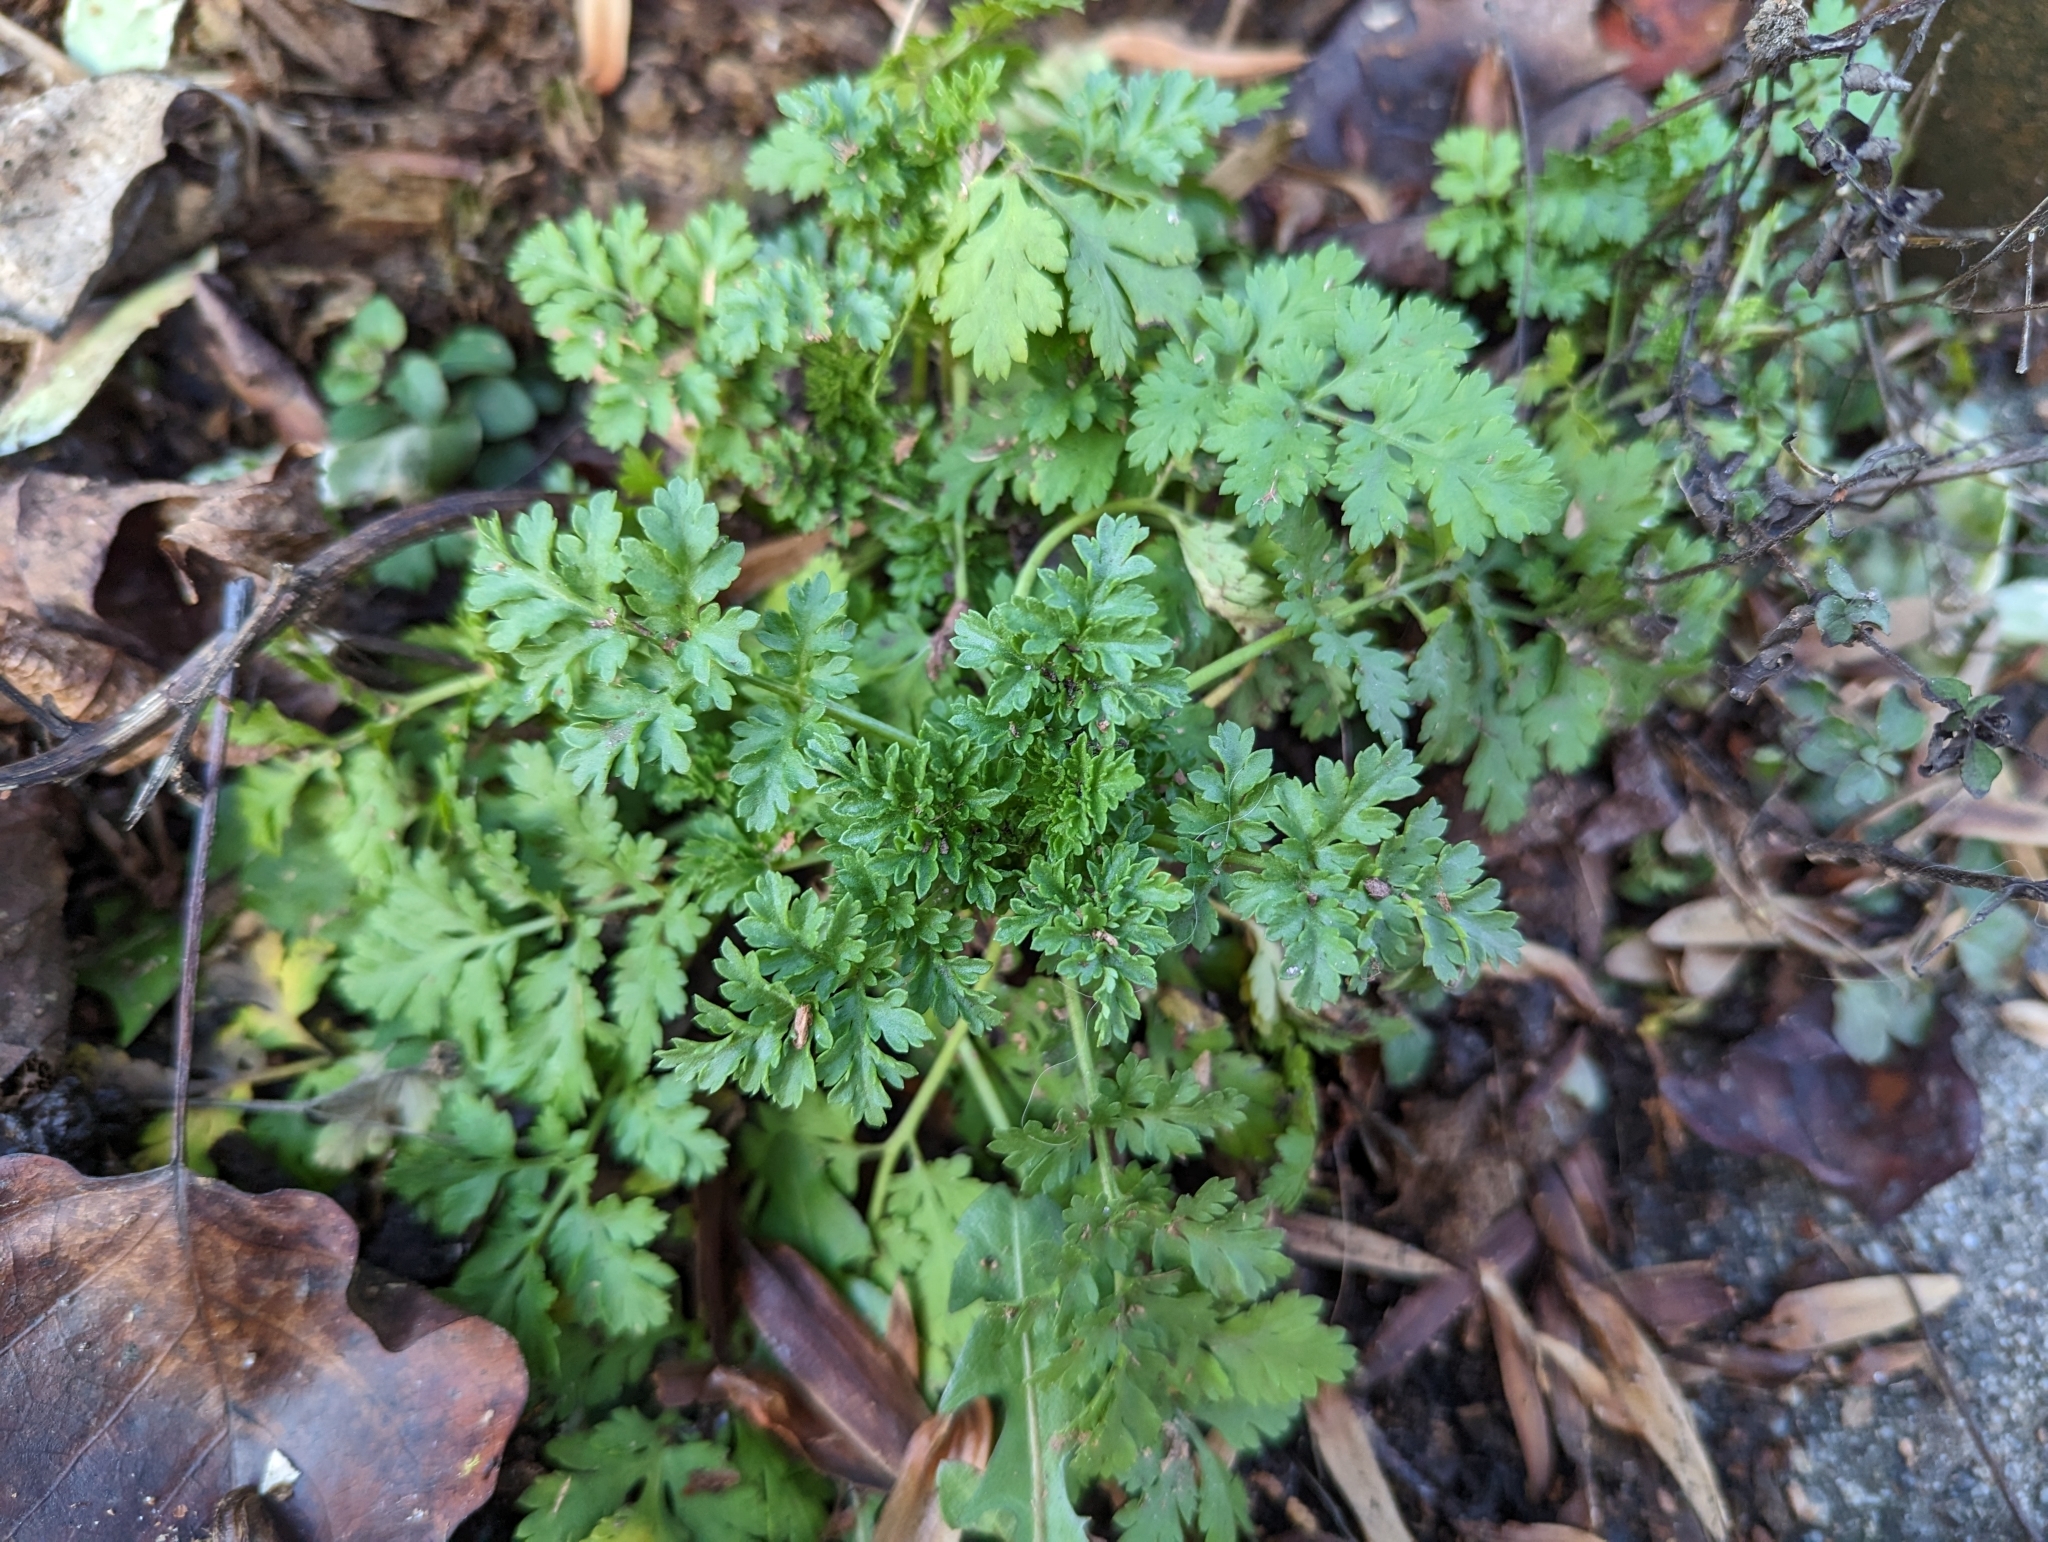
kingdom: Plantae
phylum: Tracheophyta
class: Magnoliopsida
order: Asterales
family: Asteraceae
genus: Tanacetum
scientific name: Tanacetum parthenium
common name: Feverfew
